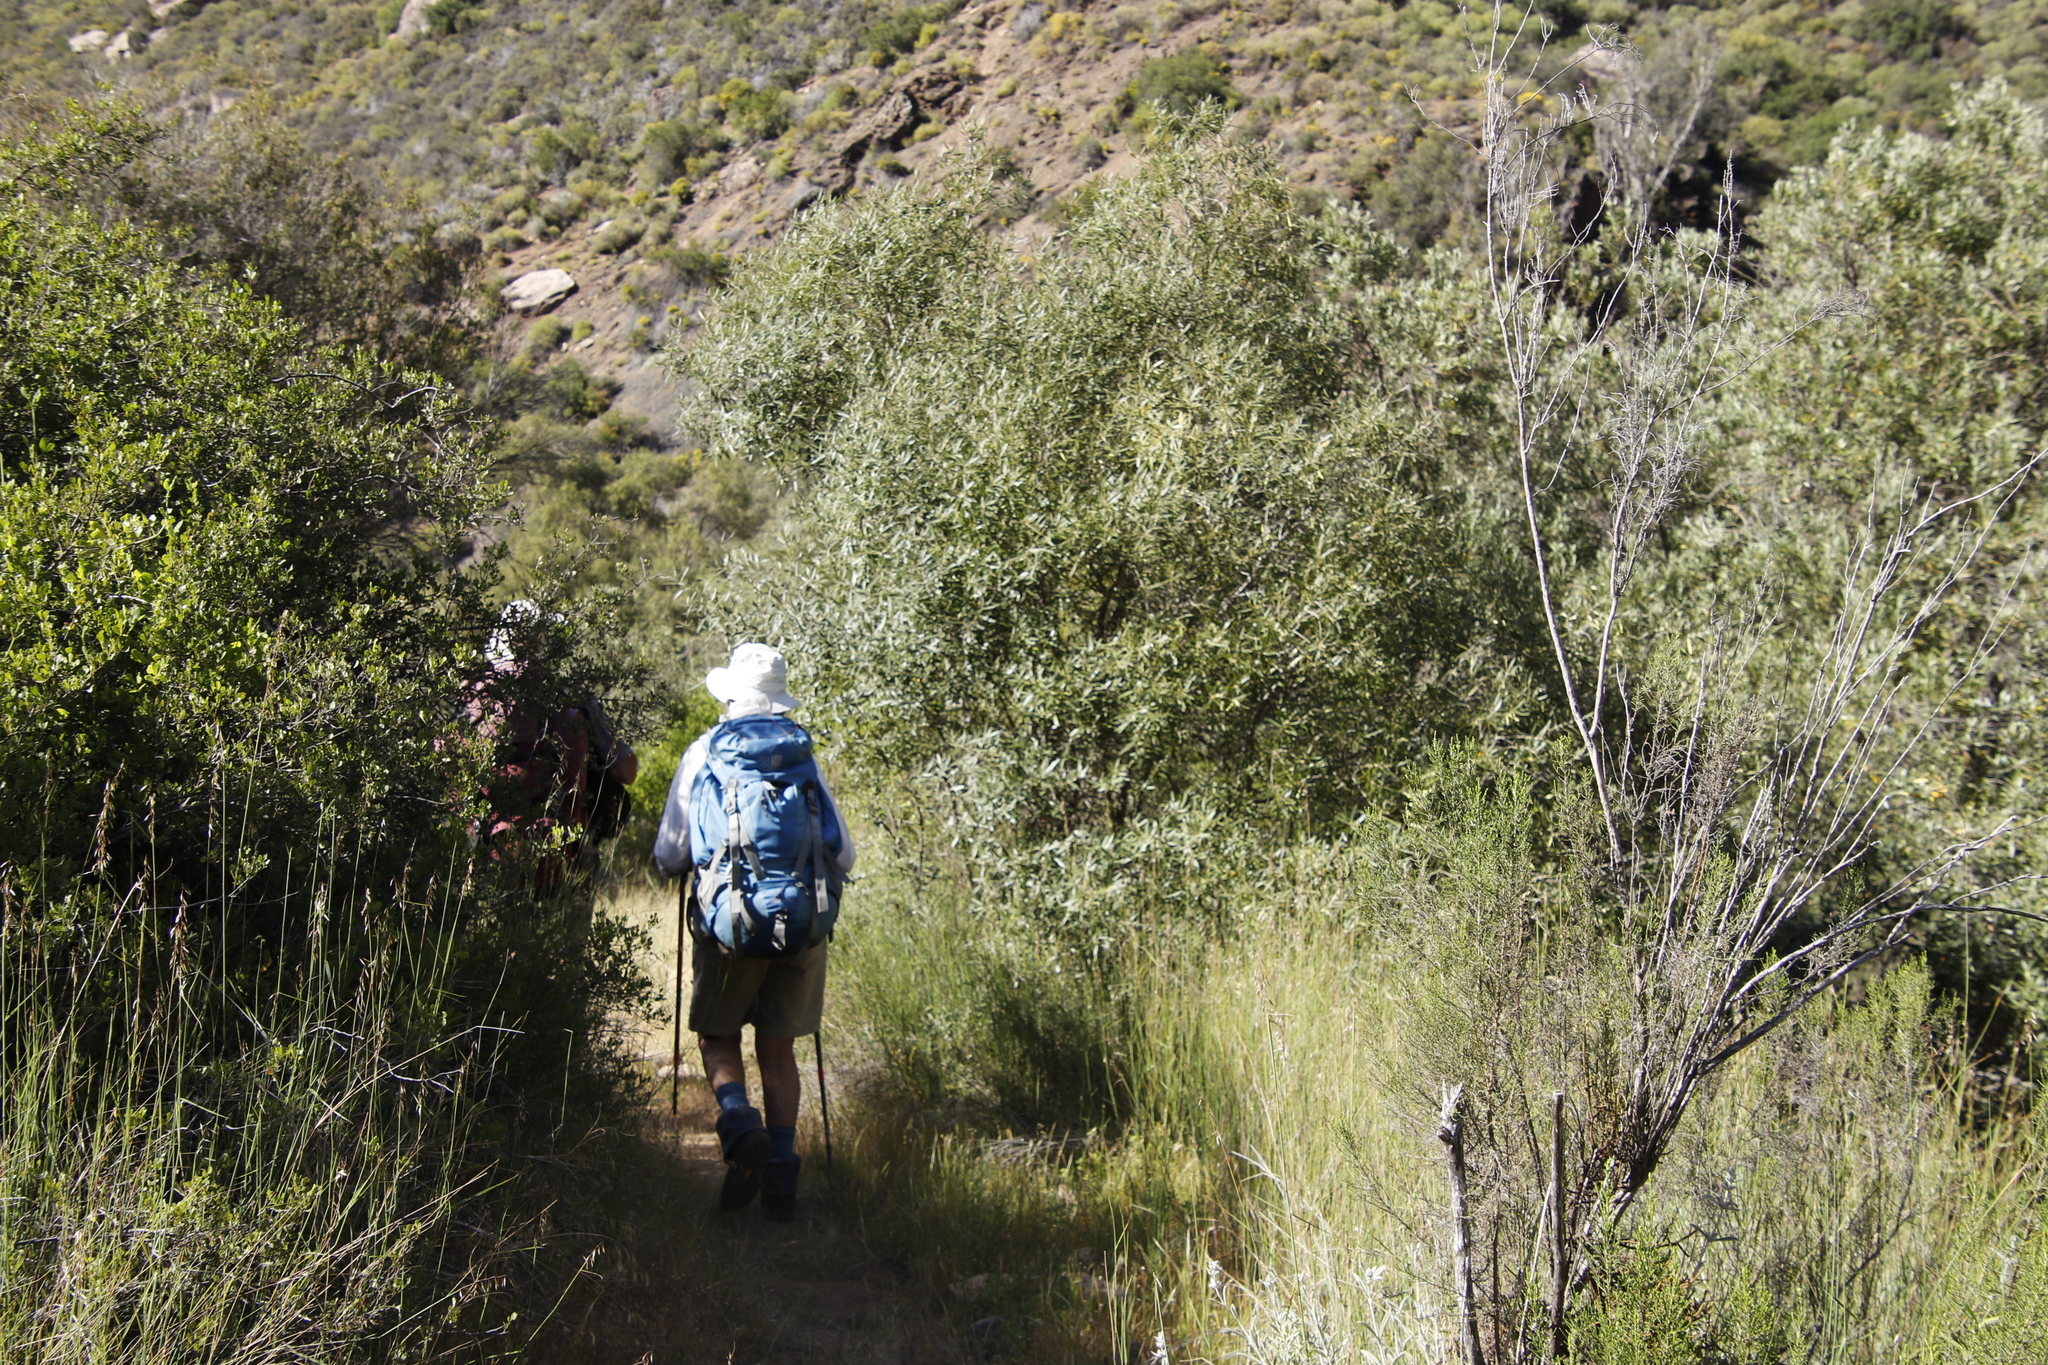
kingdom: Plantae
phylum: Tracheophyta
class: Magnoliopsida
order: Lamiales
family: Oleaceae
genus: Olea
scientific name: Olea europaea
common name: Olive
